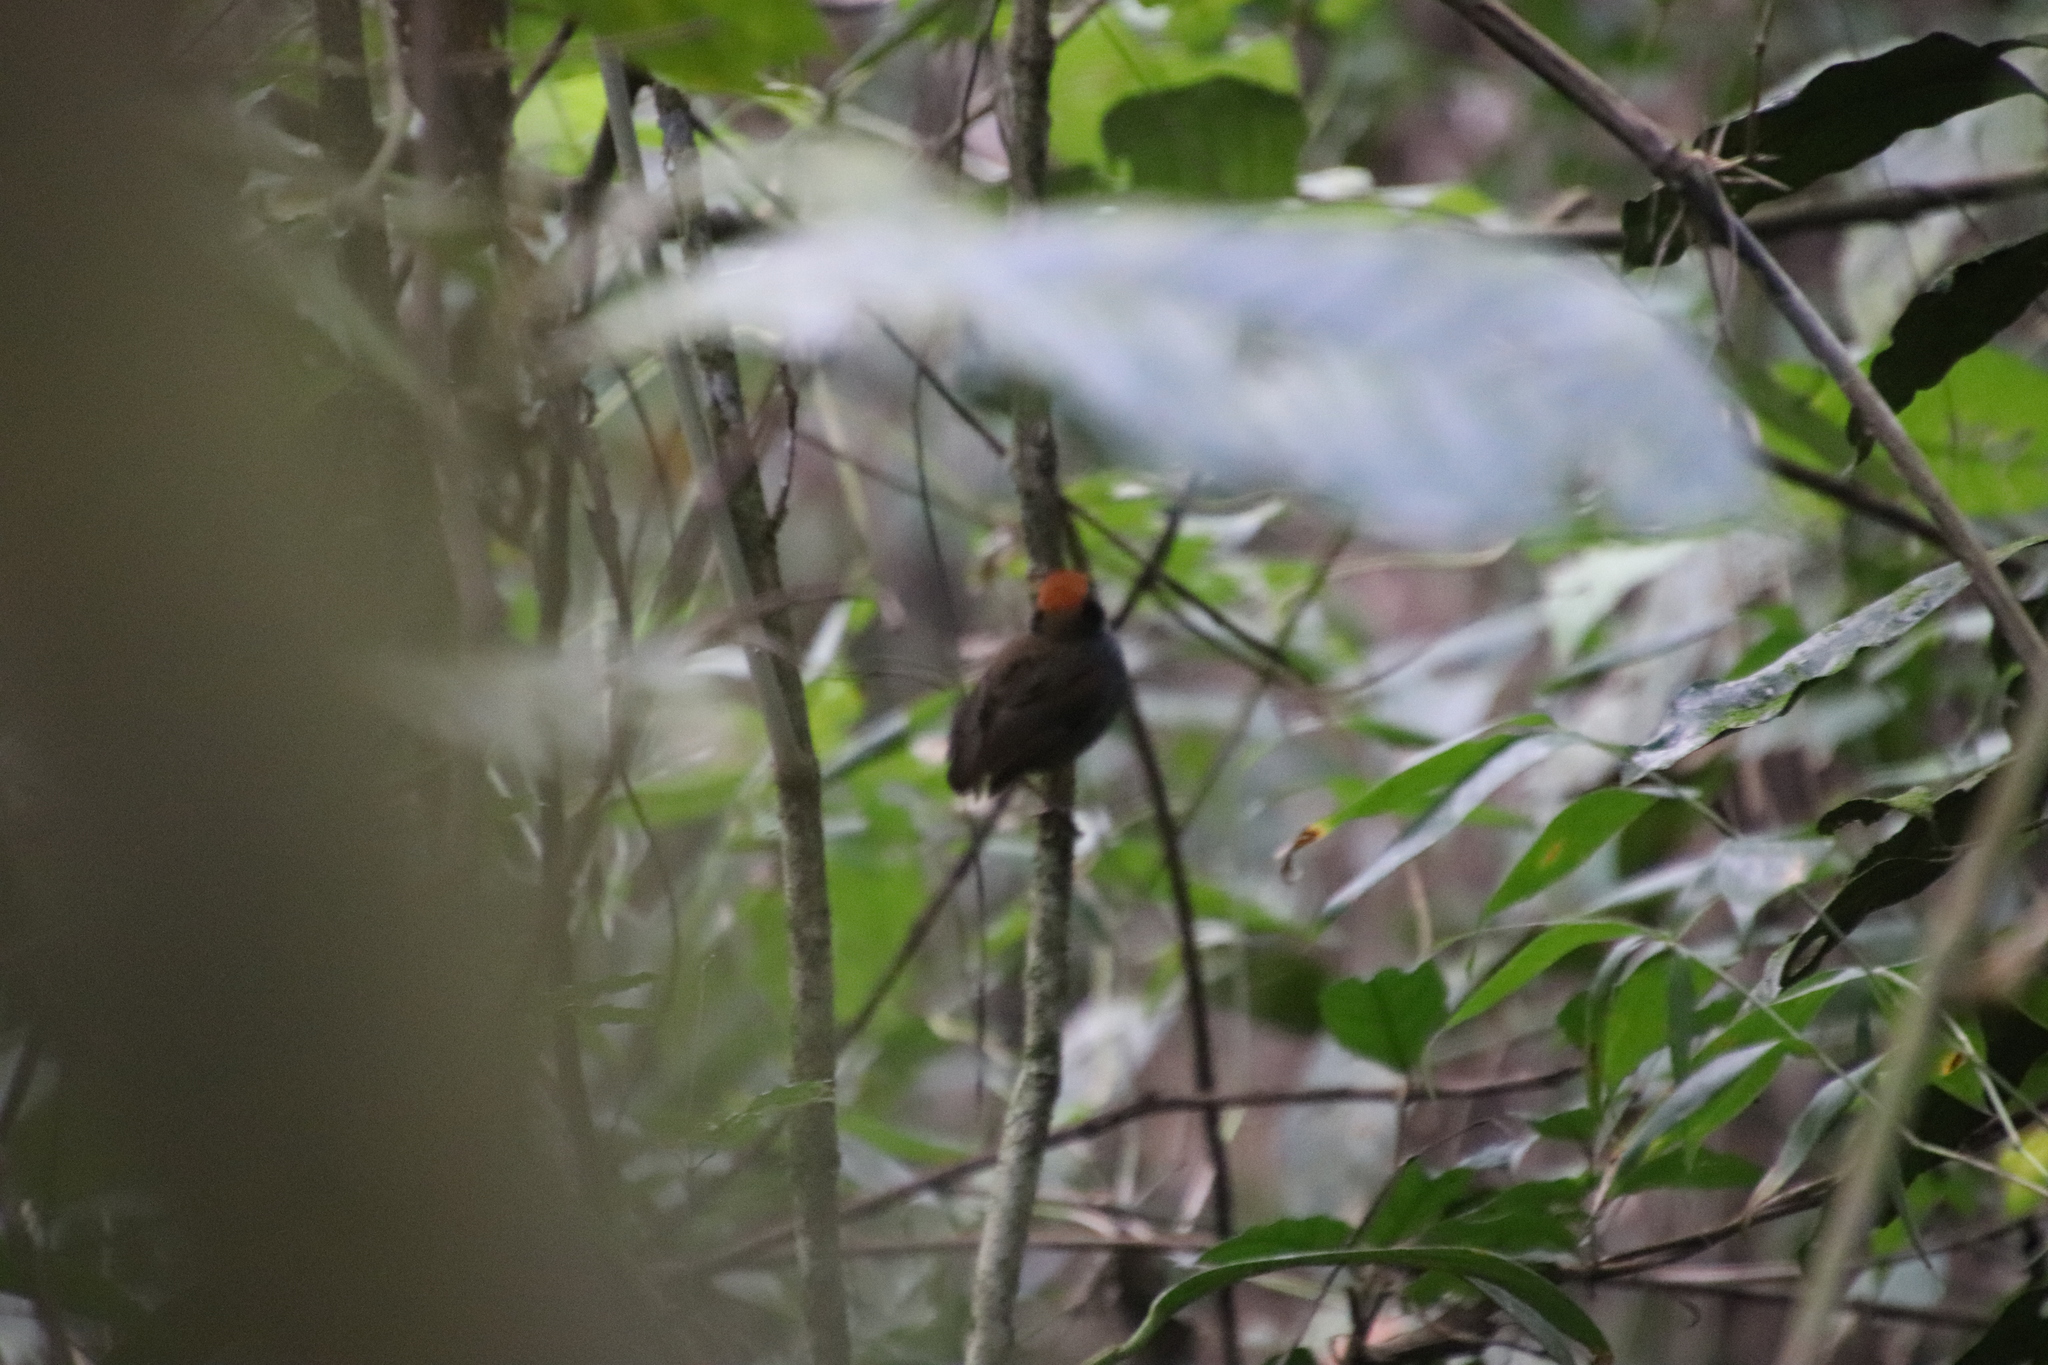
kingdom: Animalia
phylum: Chordata
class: Aves
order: Passeriformes
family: Conopophagidae
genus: Conopophaga
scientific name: Conopophaga melanops
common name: Black-cheeked gnateater
